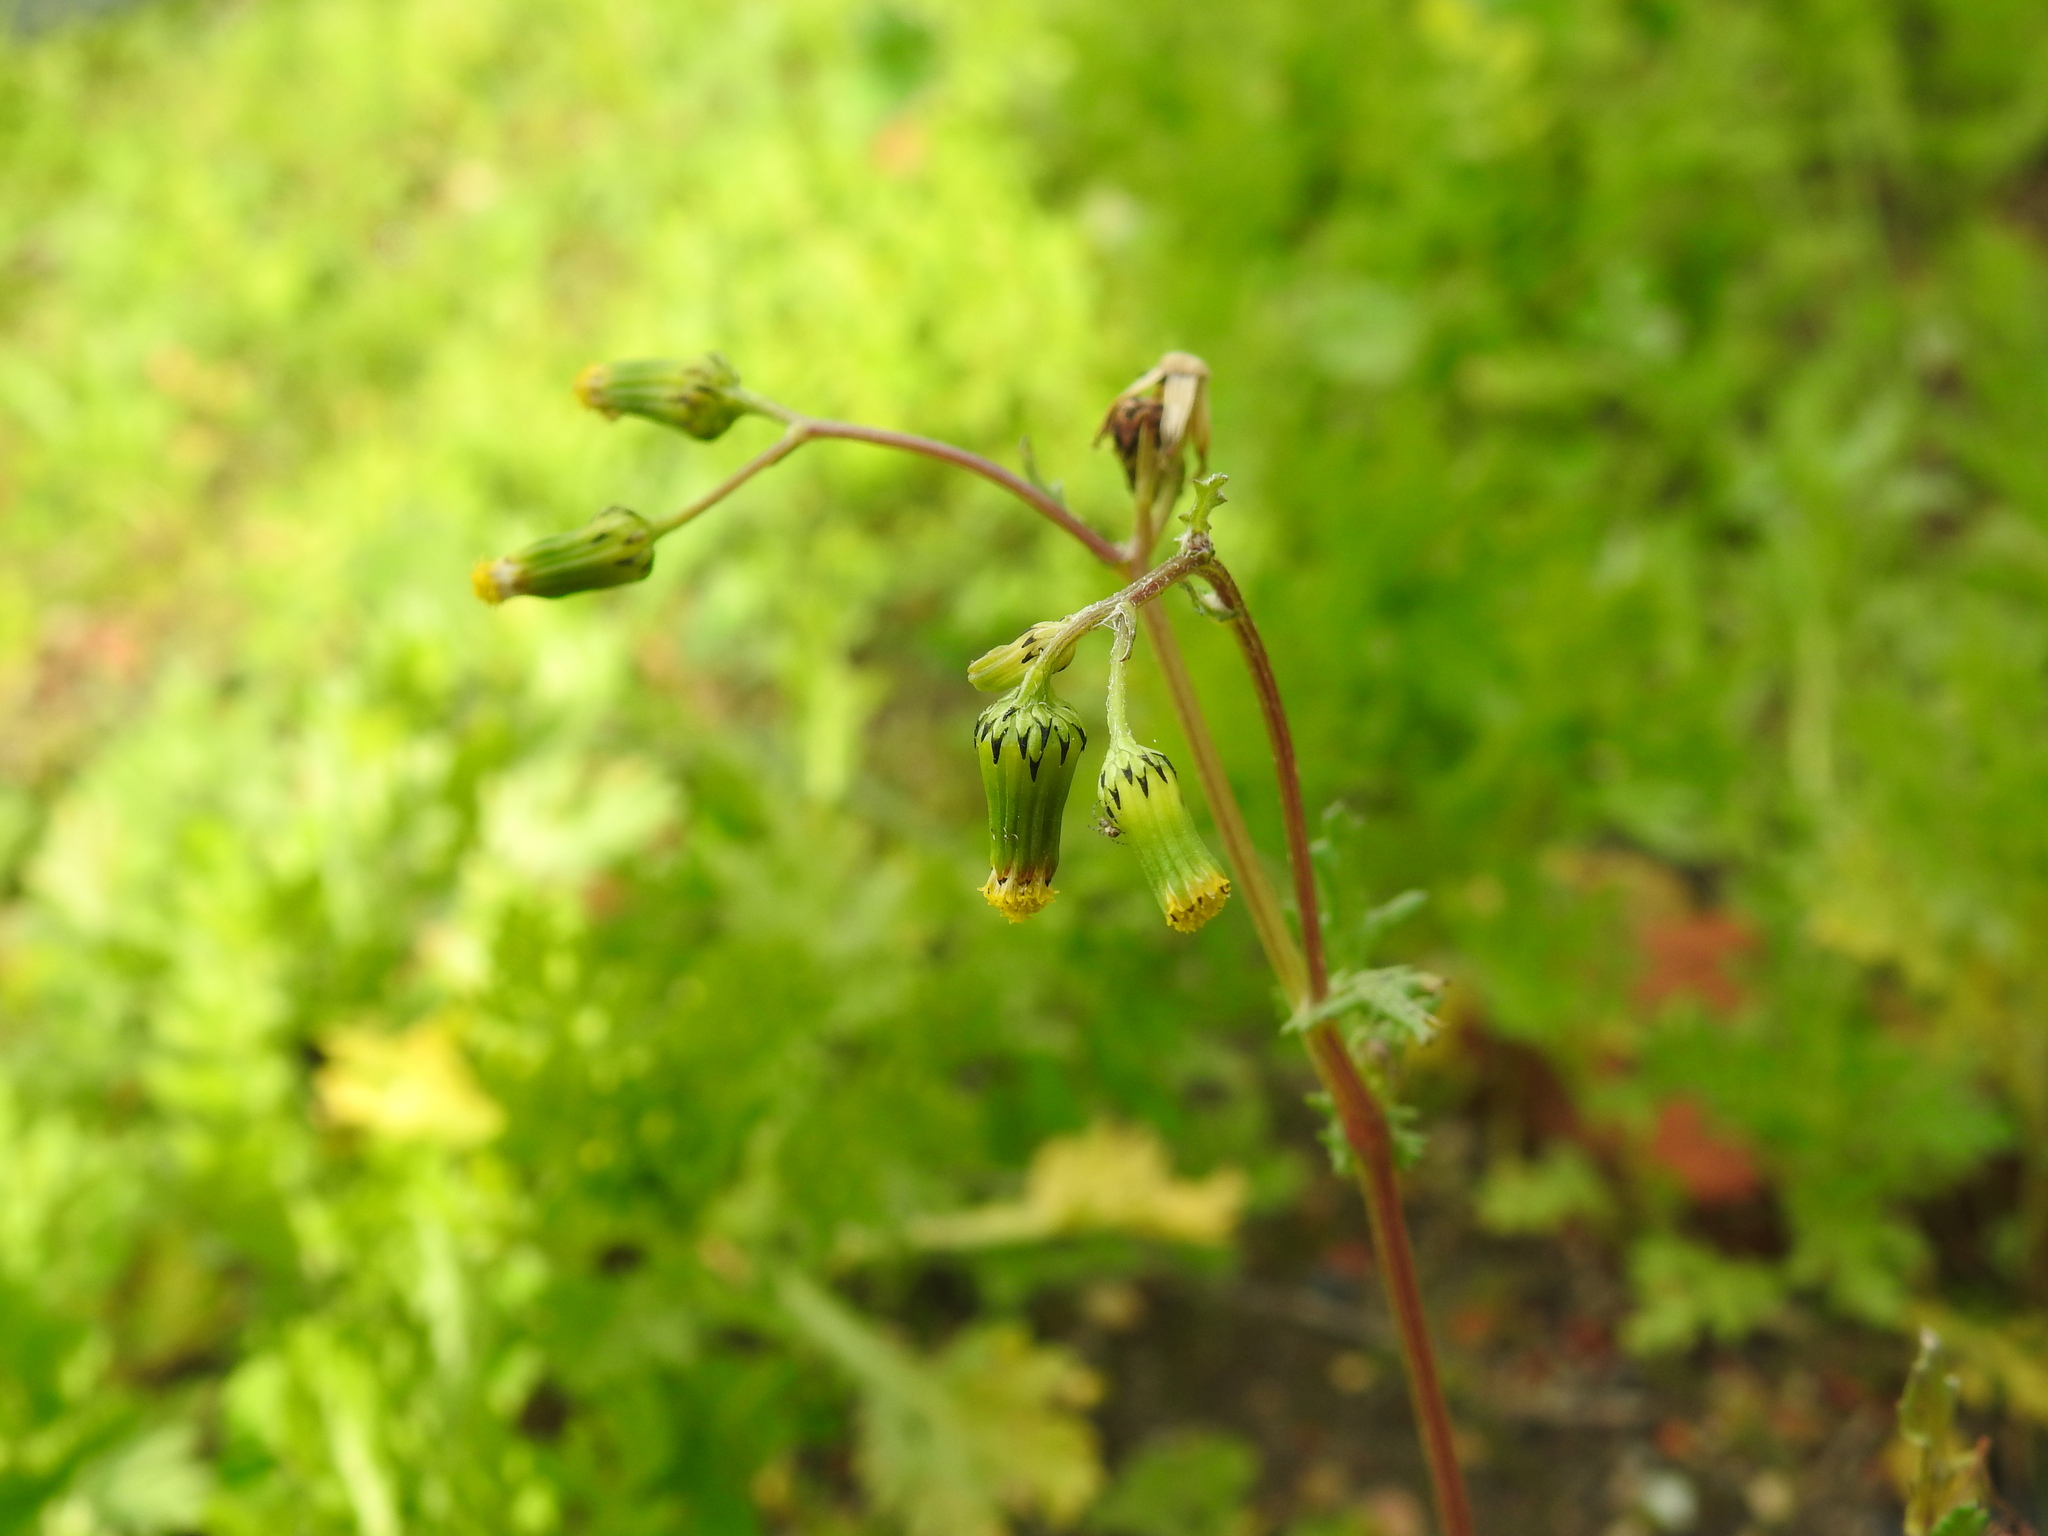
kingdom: Plantae
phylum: Tracheophyta
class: Magnoliopsida
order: Asterales
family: Asteraceae
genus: Senecio
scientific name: Senecio vulgaris
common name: Old-man-in-the-spring
